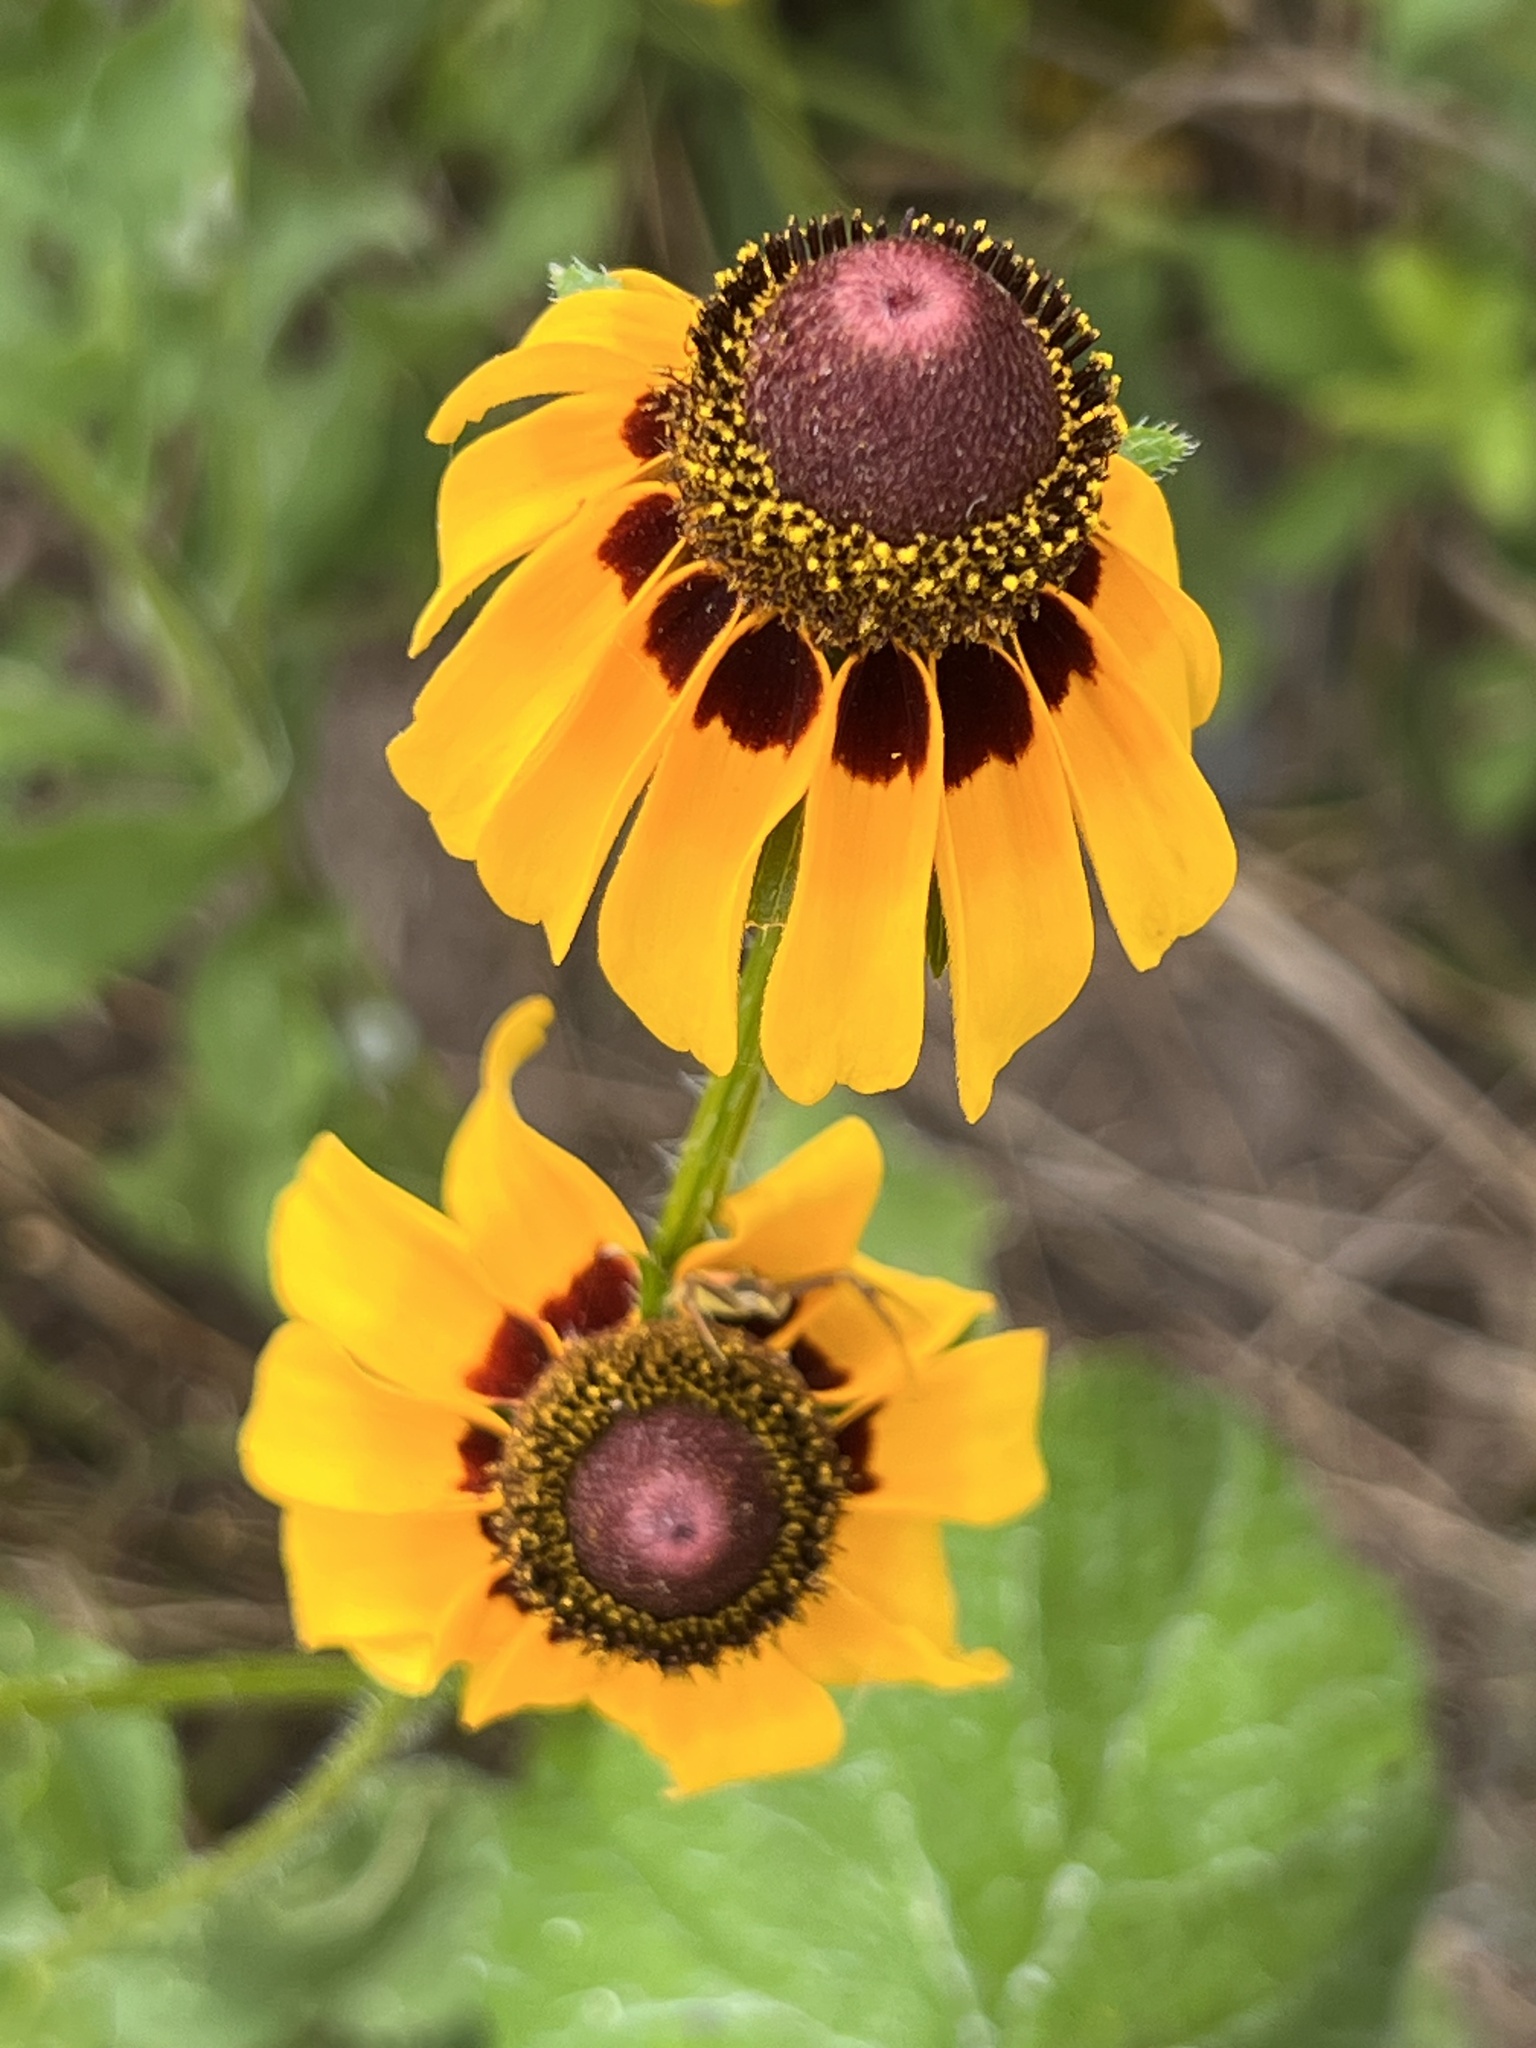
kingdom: Plantae
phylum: Tracheophyta
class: Magnoliopsida
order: Asterales
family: Asteraceae
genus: Rudbeckia
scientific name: Rudbeckia hirta
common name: Black-eyed-susan
